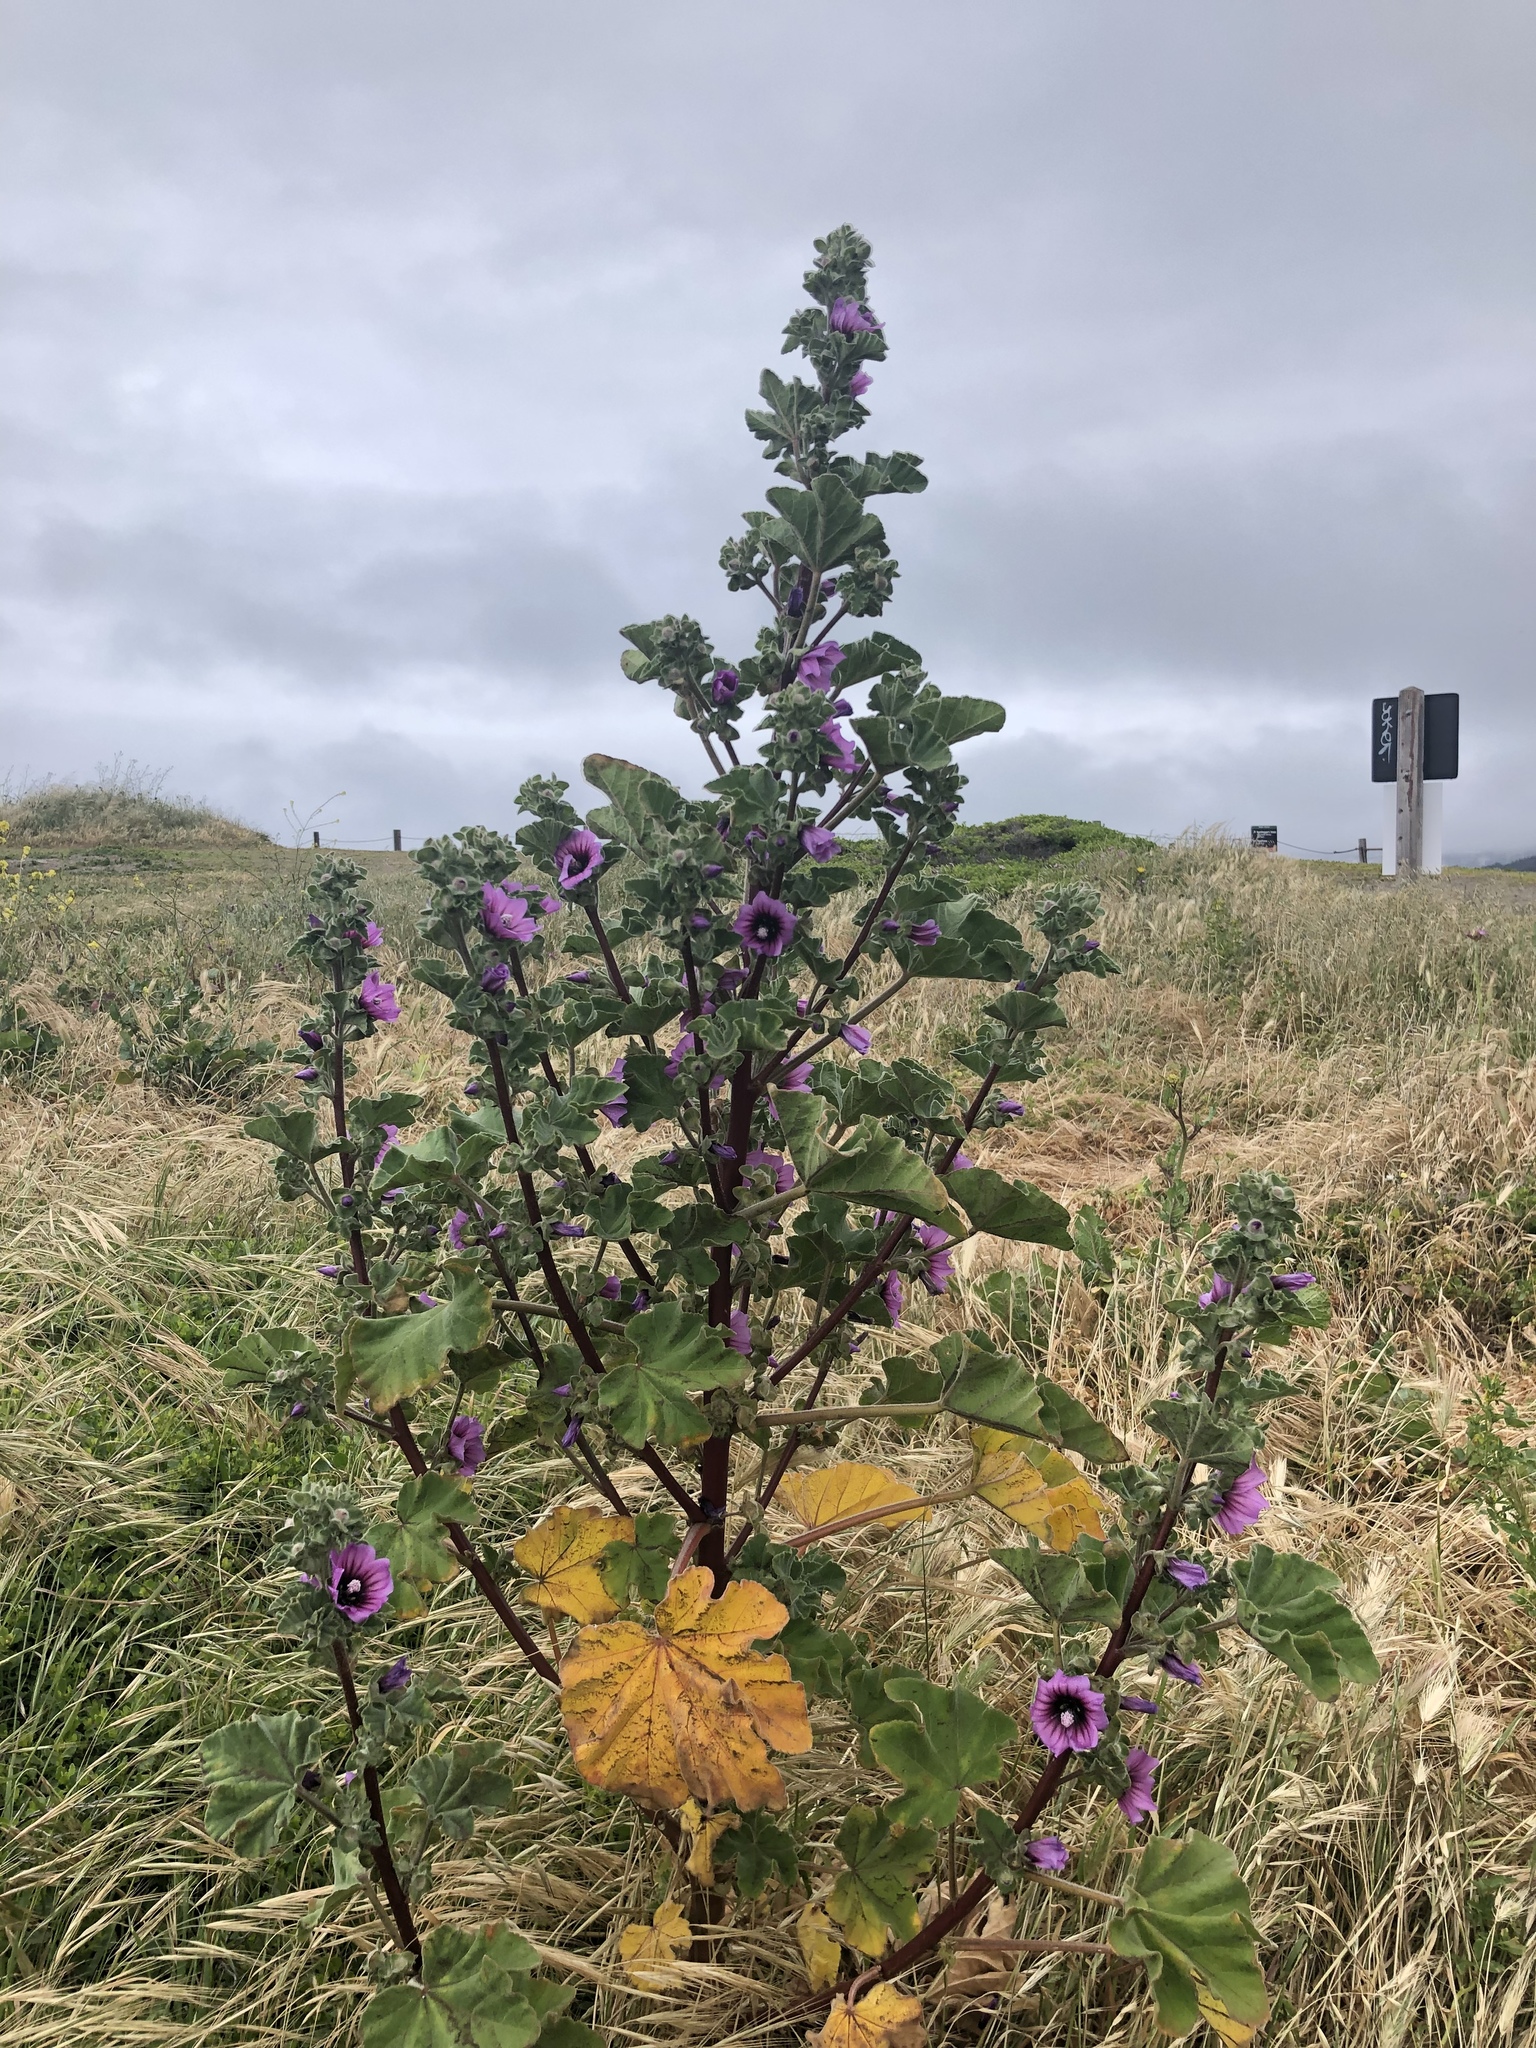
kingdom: Plantae
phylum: Tracheophyta
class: Magnoliopsida
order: Malvales
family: Malvaceae
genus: Malva
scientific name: Malva arborea
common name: Tree mallow
